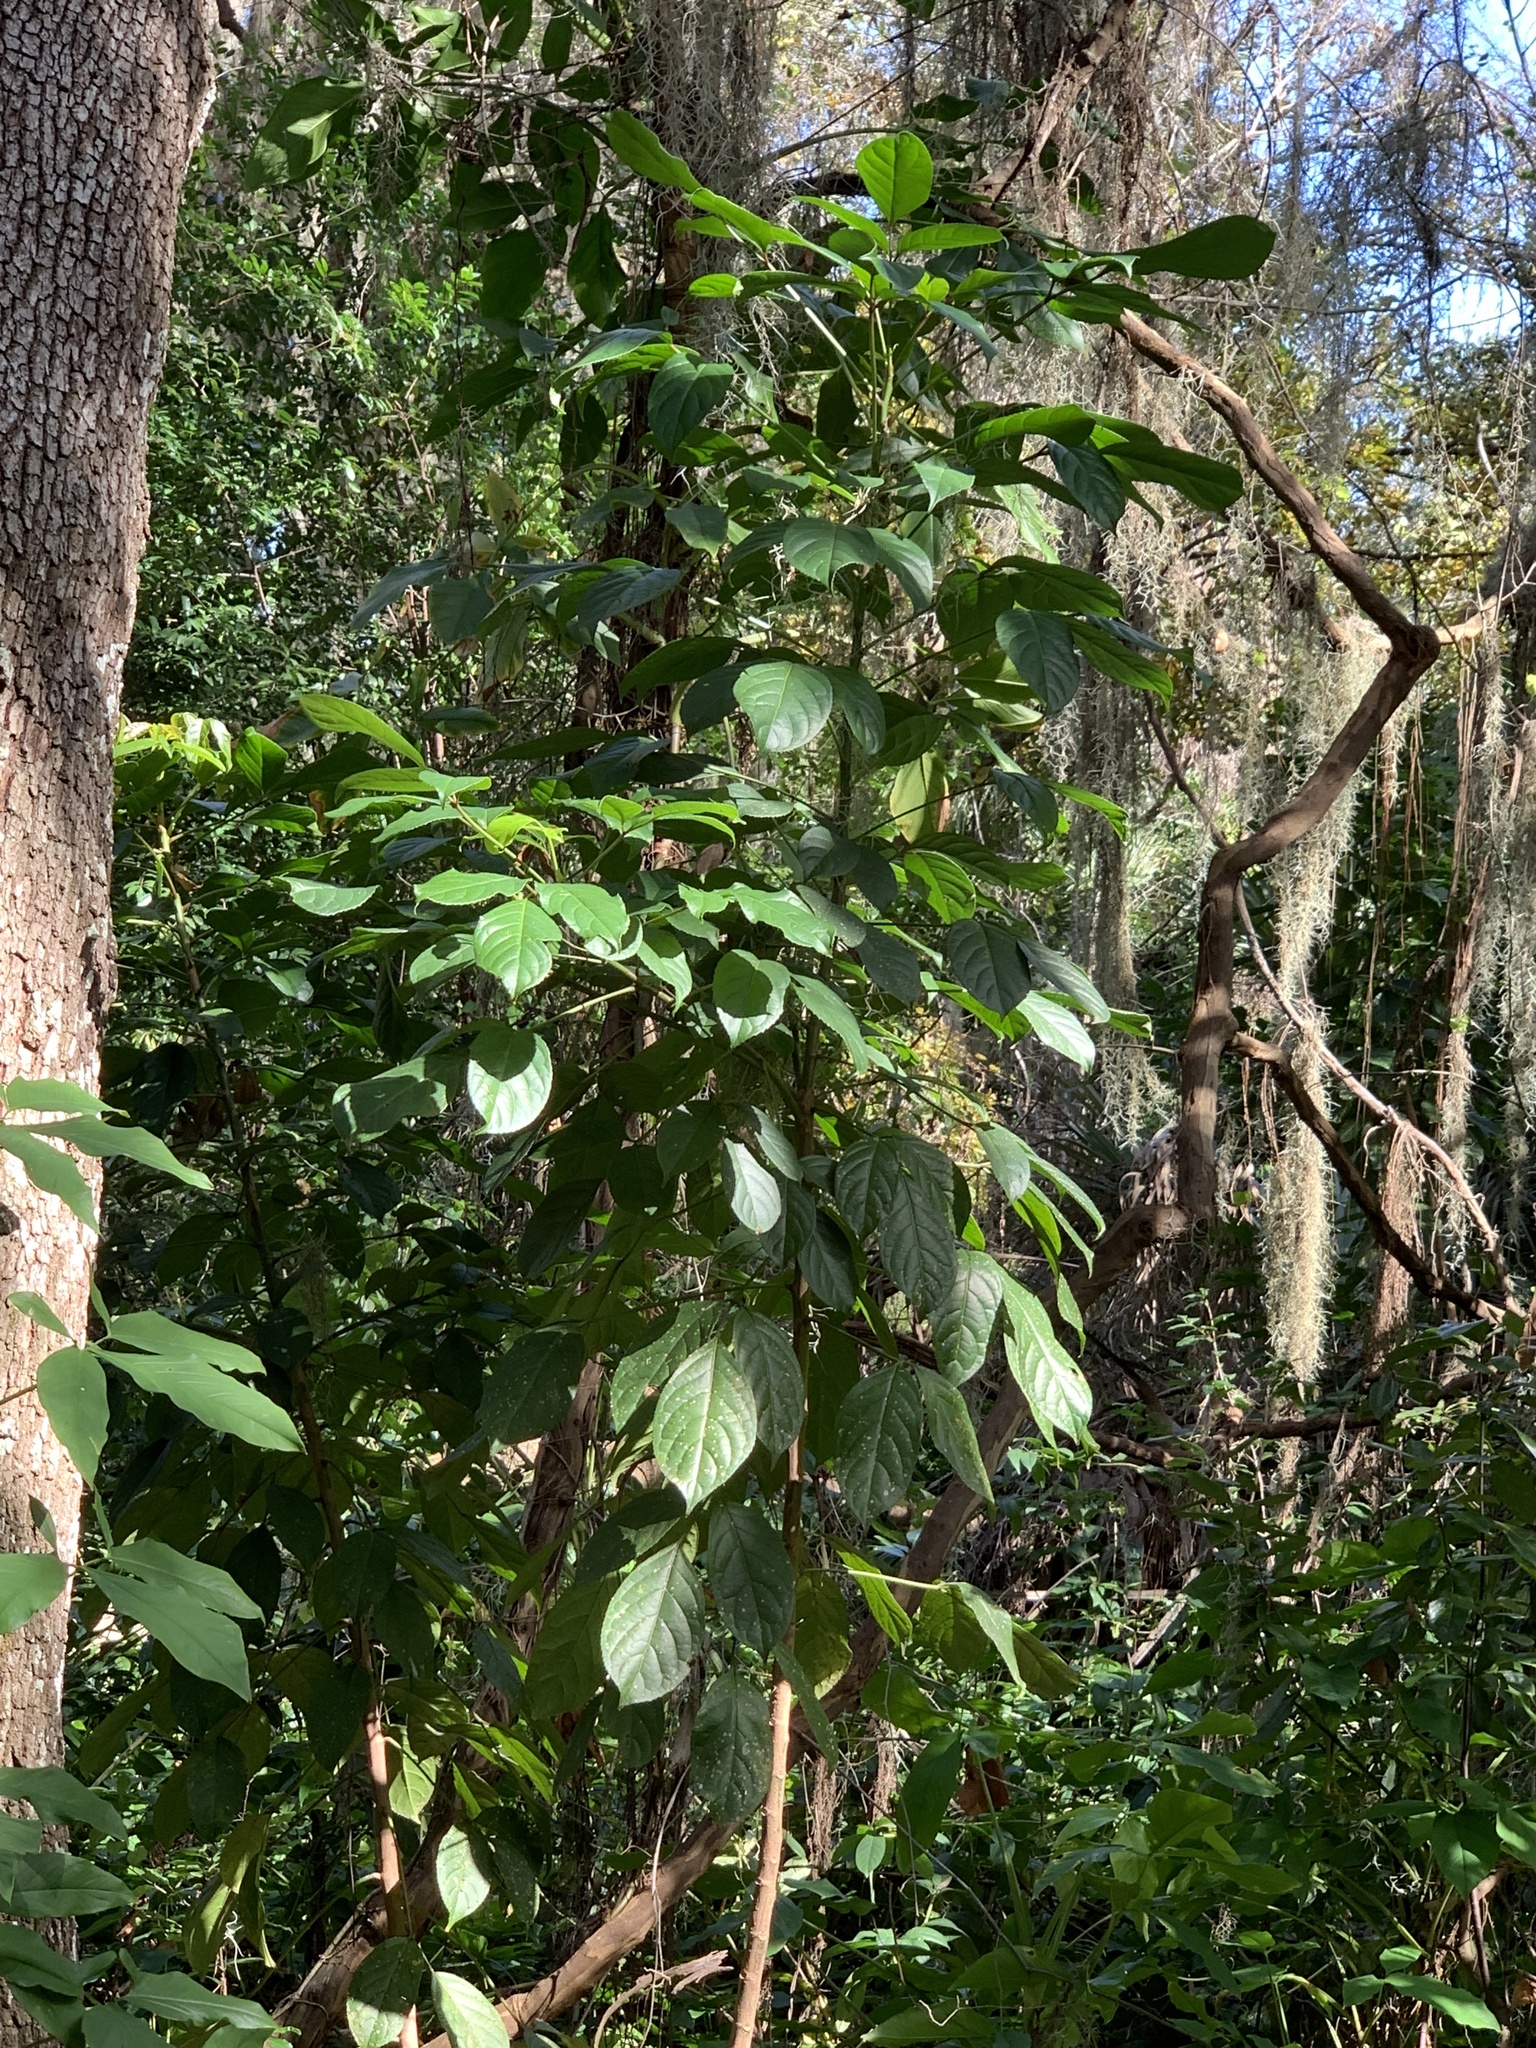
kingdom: Plantae
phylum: Tracheophyta
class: Magnoliopsida
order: Malpighiales
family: Phyllanthaceae
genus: Bischofia
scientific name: Bischofia javanica
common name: Javanese bishopwood
